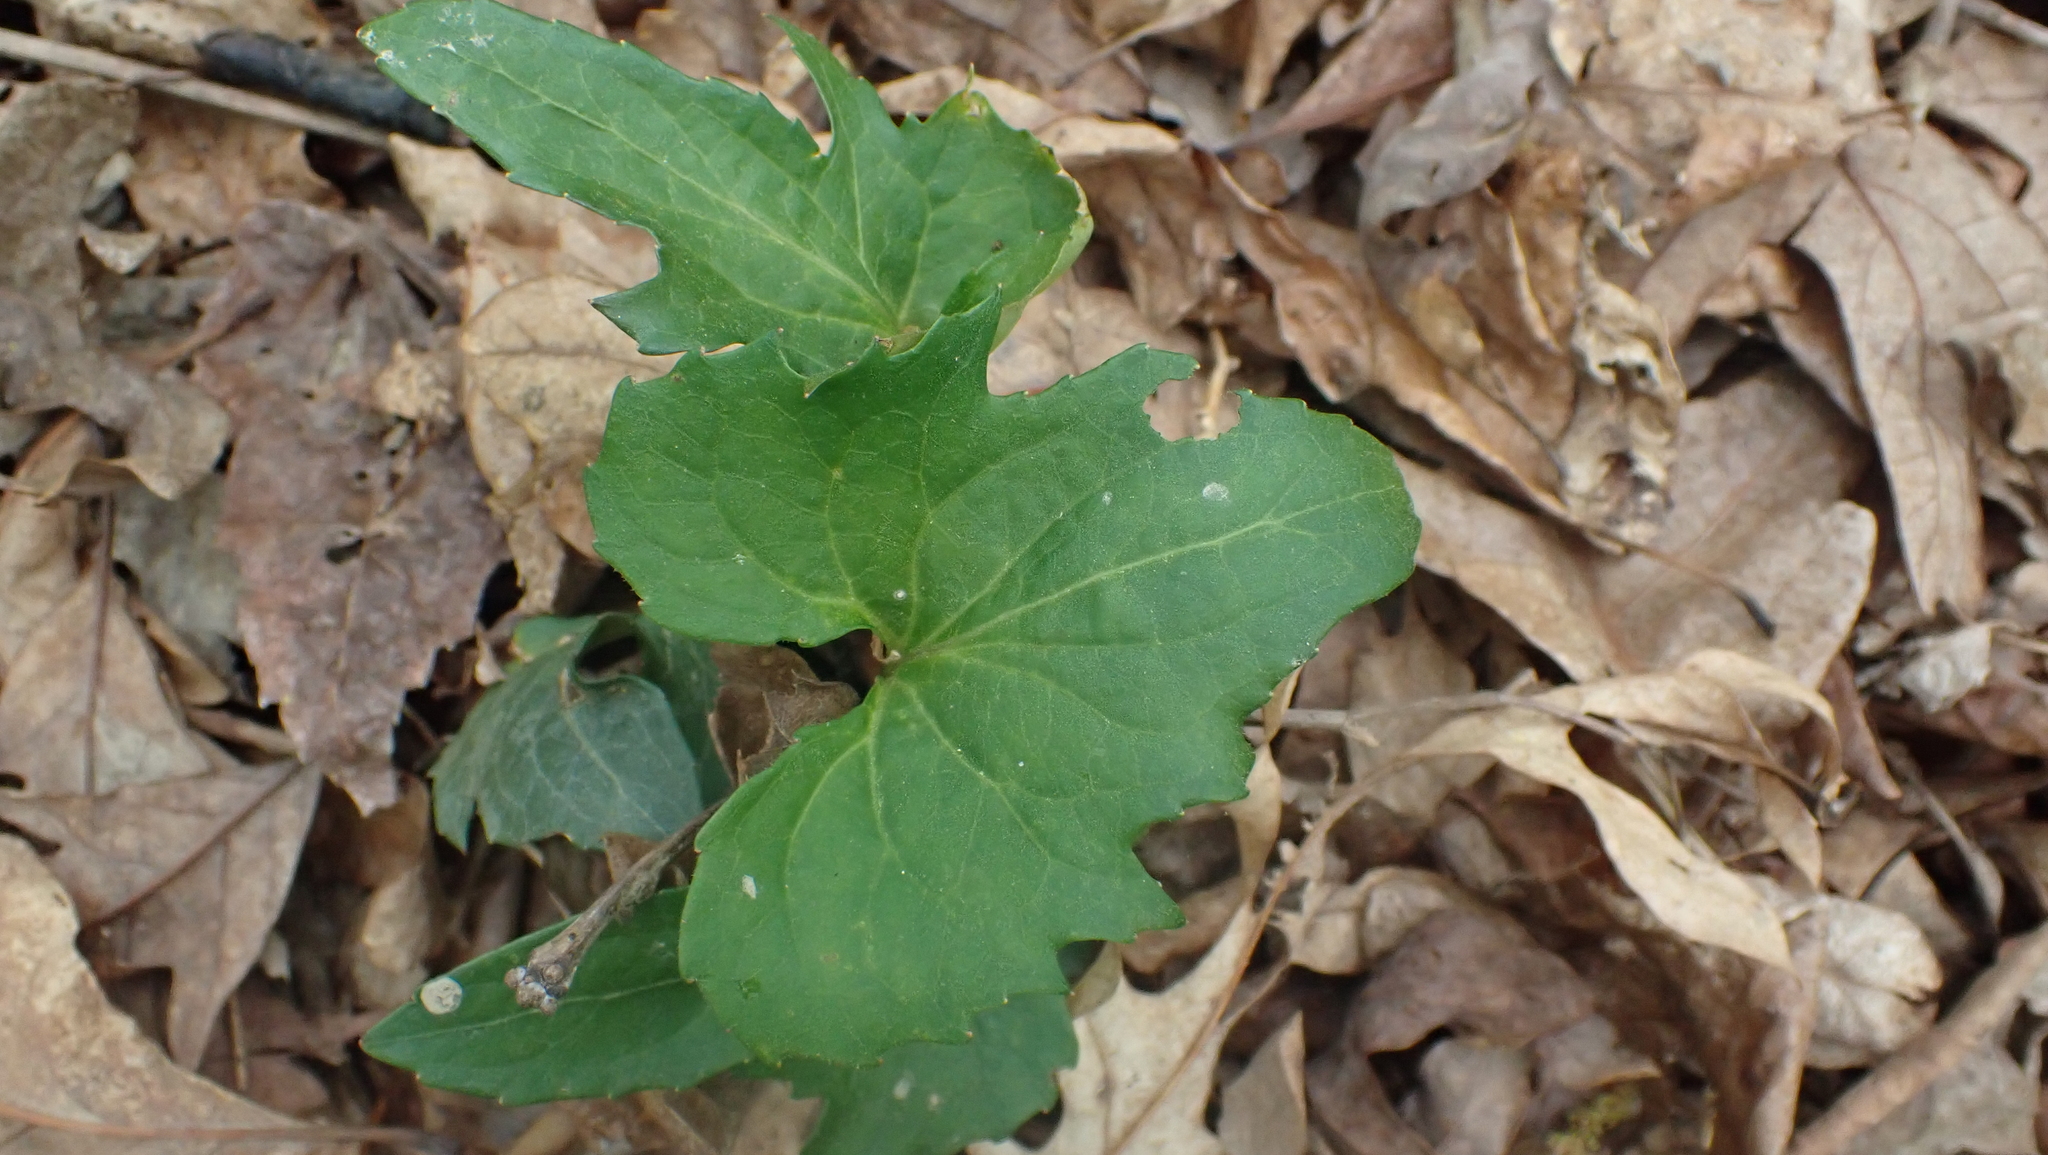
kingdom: Plantae
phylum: Tracheophyta
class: Magnoliopsida
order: Malpighiales
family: Violaceae
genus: Viola
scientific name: Viola palmata
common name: Early blue violet
